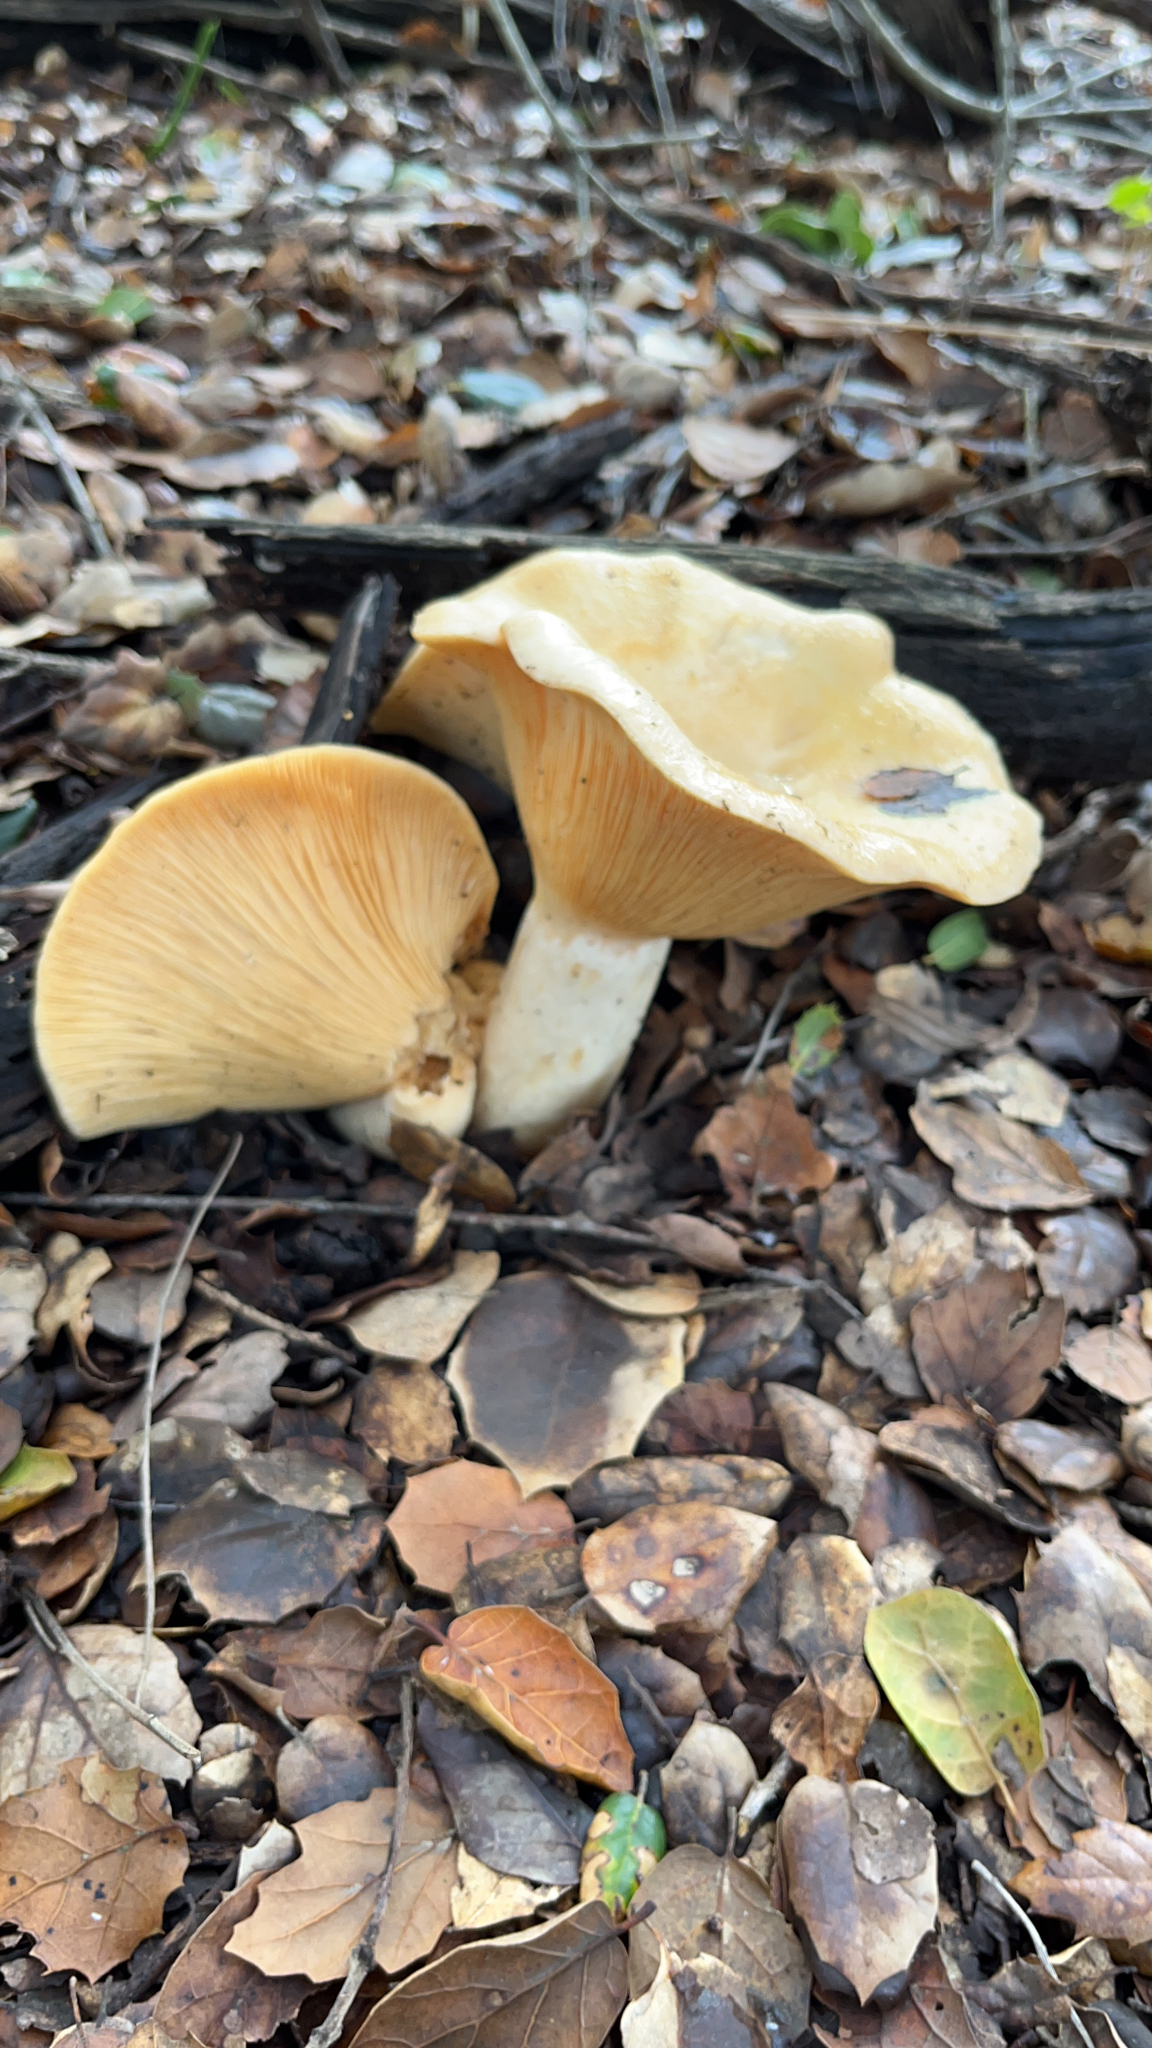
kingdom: Fungi
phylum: Basidiomycota
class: Agaricomycetes
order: Russulales
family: Russulaceae
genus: Lactarius
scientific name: Lactarius alnicola
